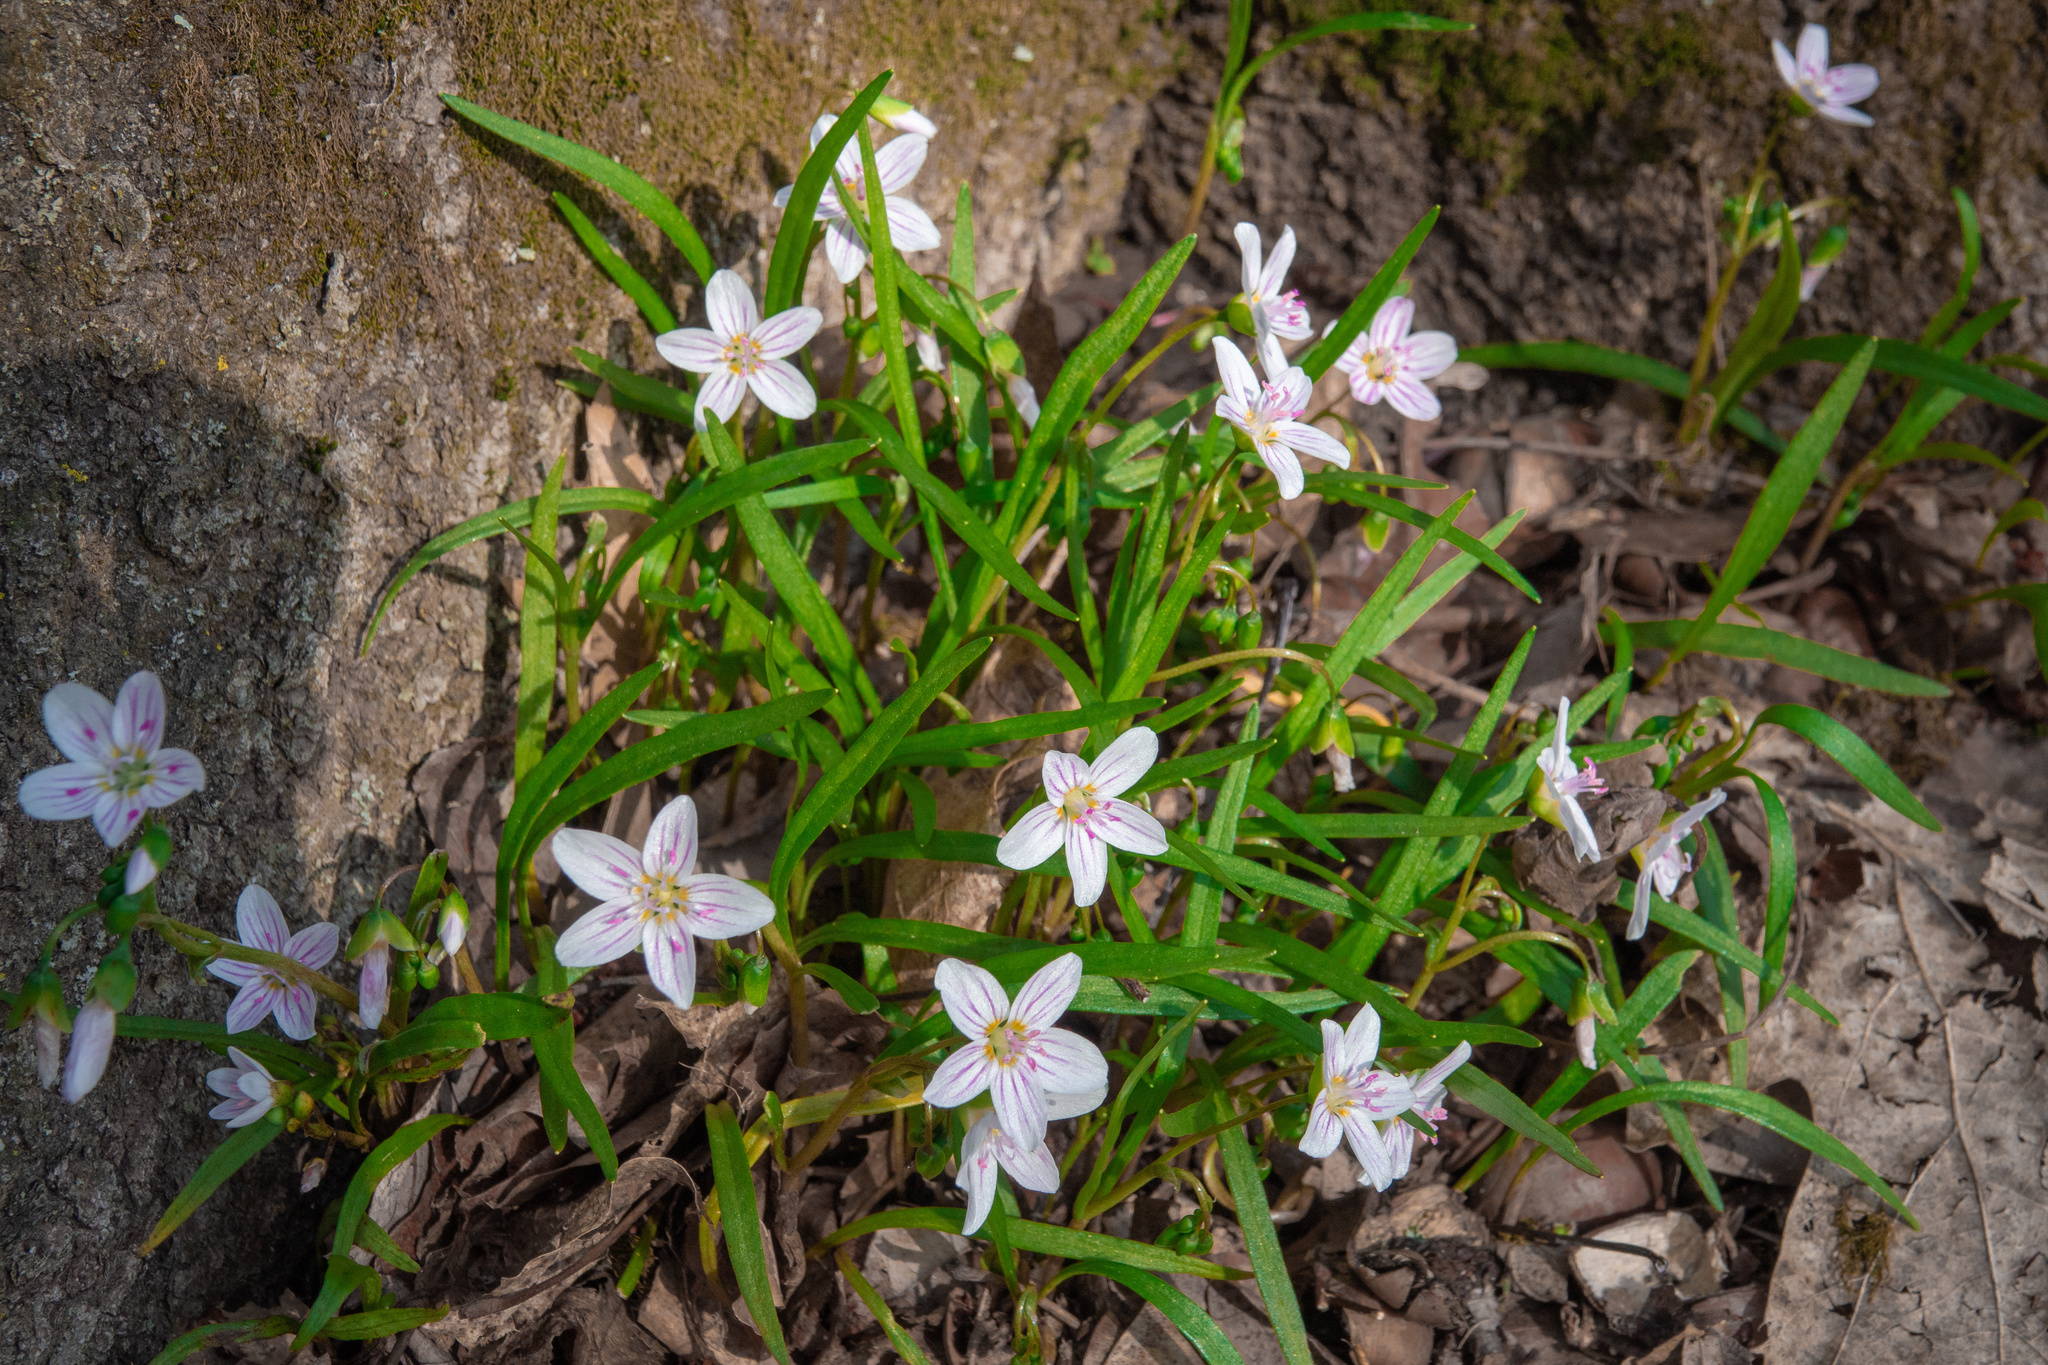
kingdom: Plantae
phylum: Tracheophyta
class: Magnoliopsida
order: Caryophyllales
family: Montiaceae
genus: Claytonia
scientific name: Claytonia virginica
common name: Virginia springbeauty
